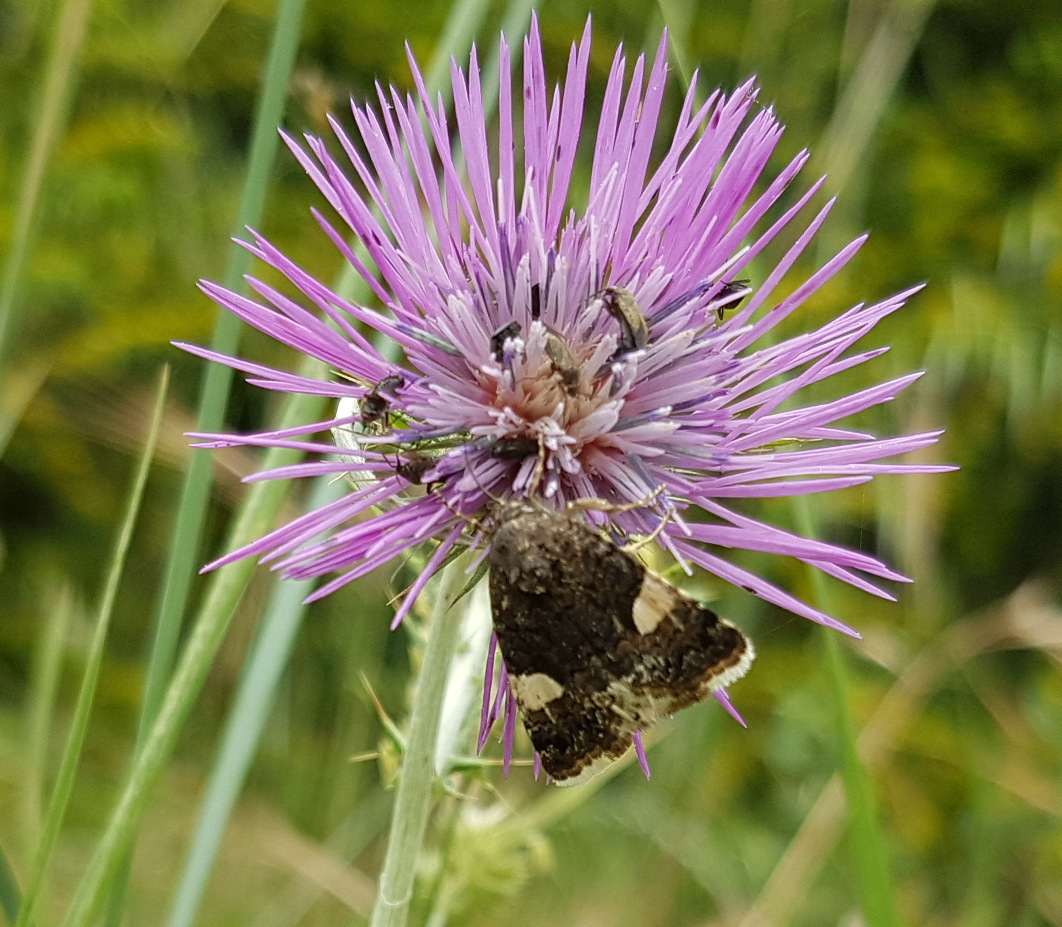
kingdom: Animalia
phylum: Arthropoda
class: Insecta
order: Lepidoptera
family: Erebidae
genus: Tyta
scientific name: Tyta luctuosa
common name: Four-spotted
